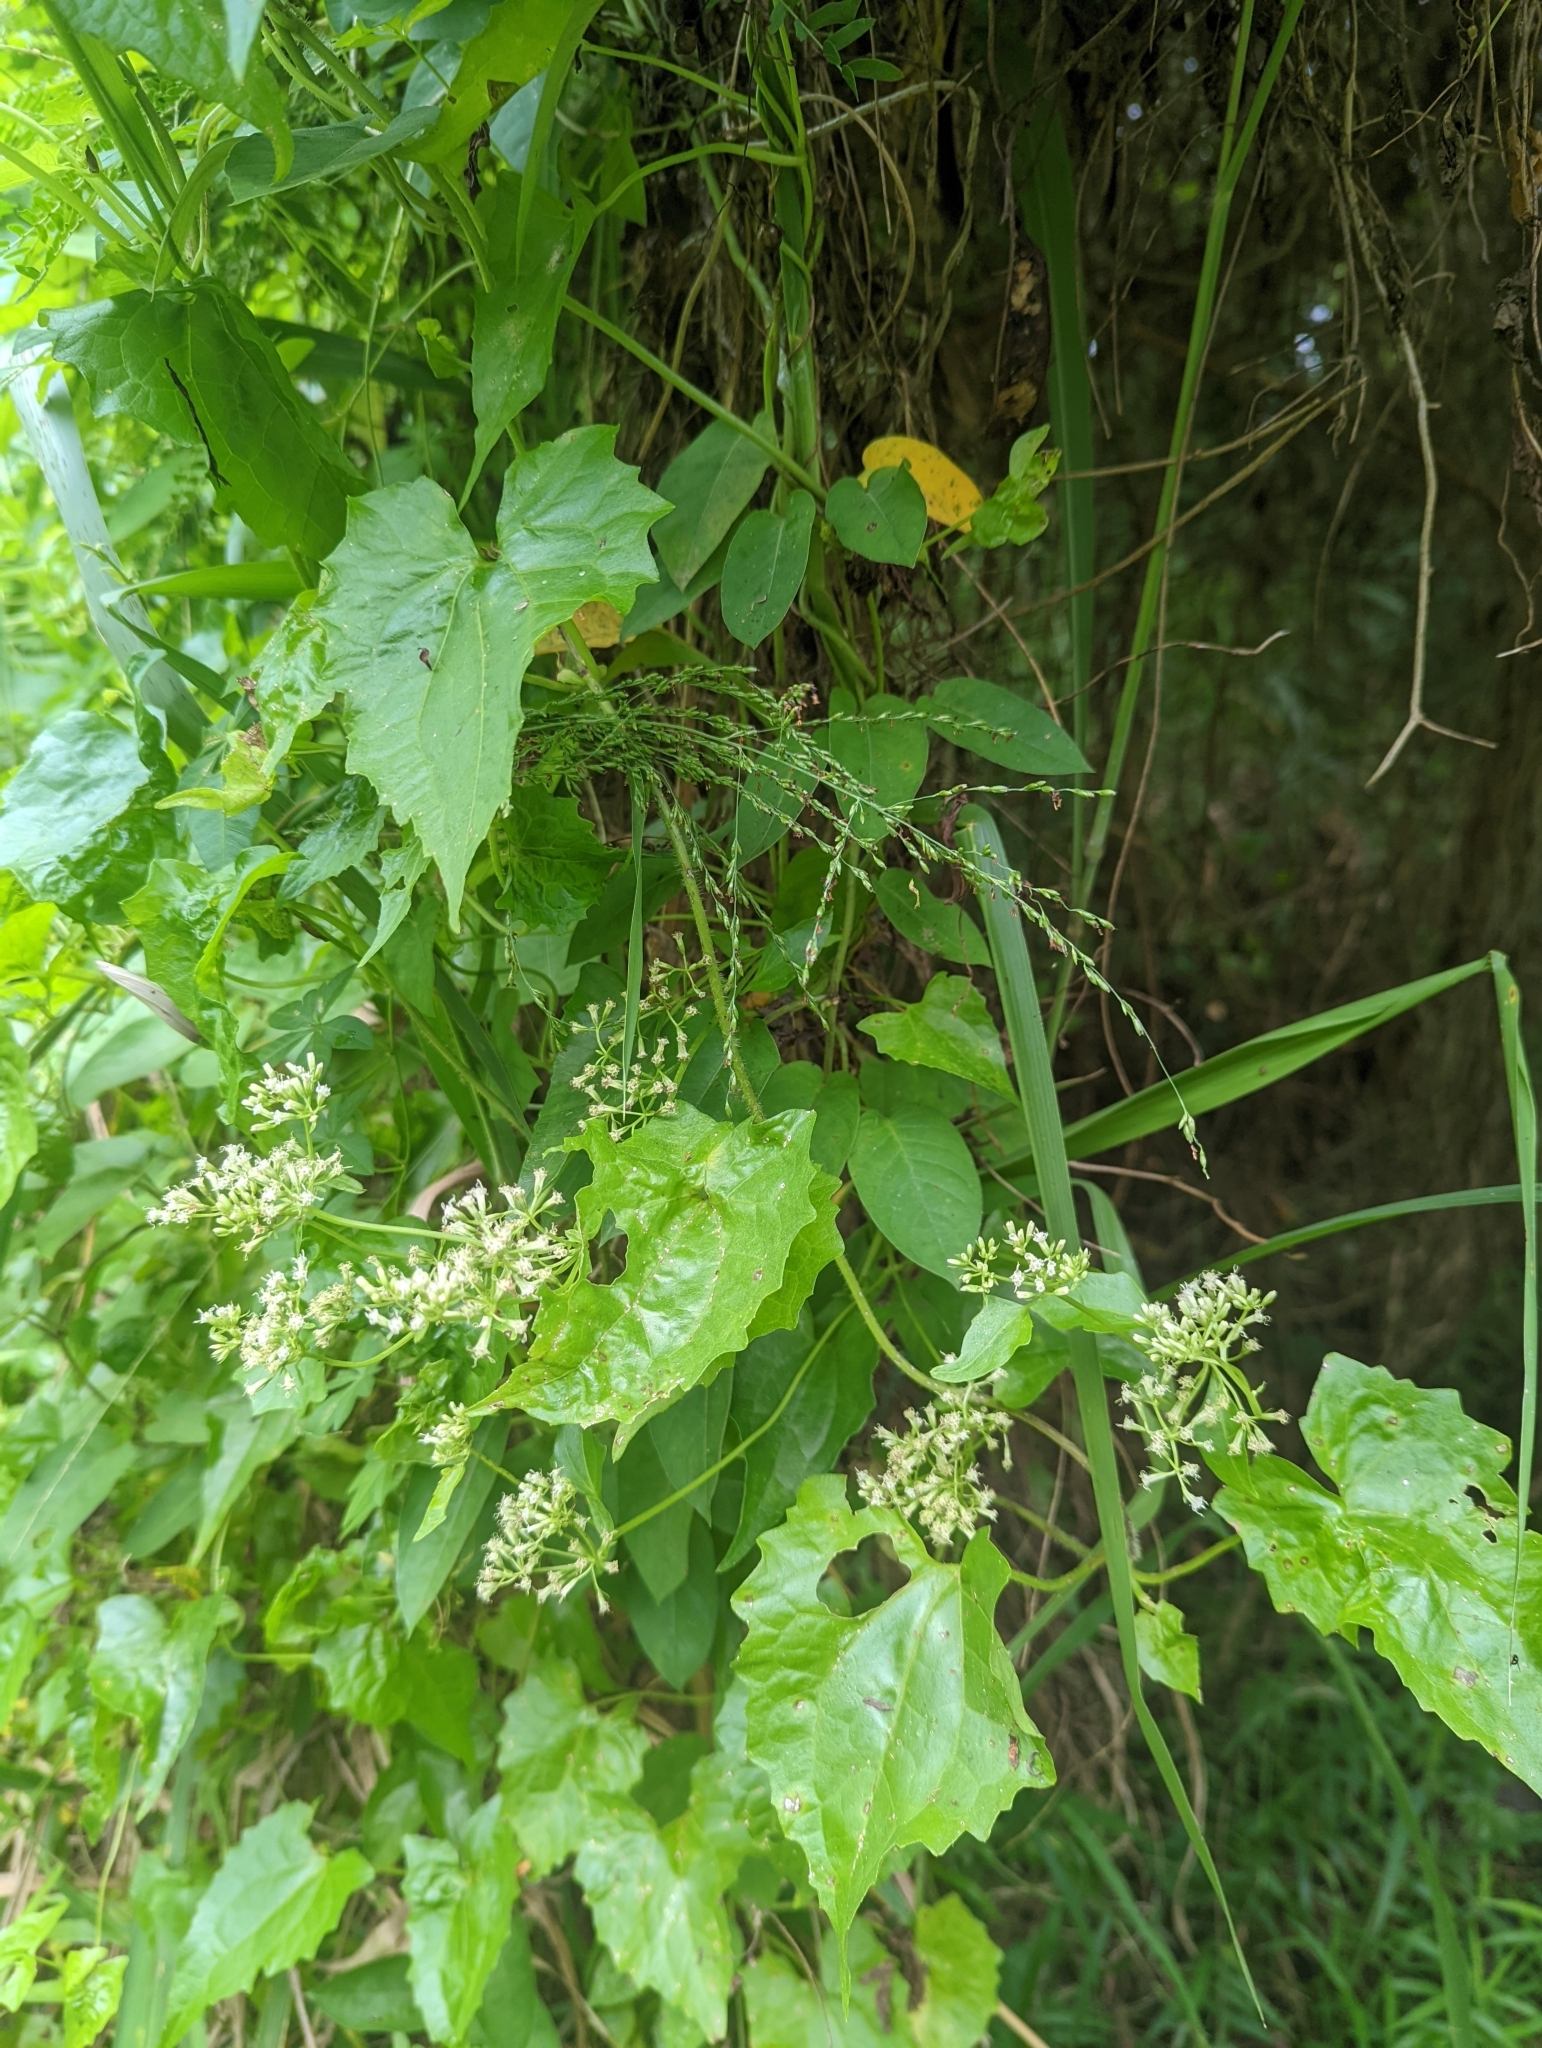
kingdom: Plantae
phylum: Tracheophyta
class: Magnoliopsida
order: Asterales
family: Asteraceae
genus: Mikania
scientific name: Mikania micrantha
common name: Mile-a-minute
